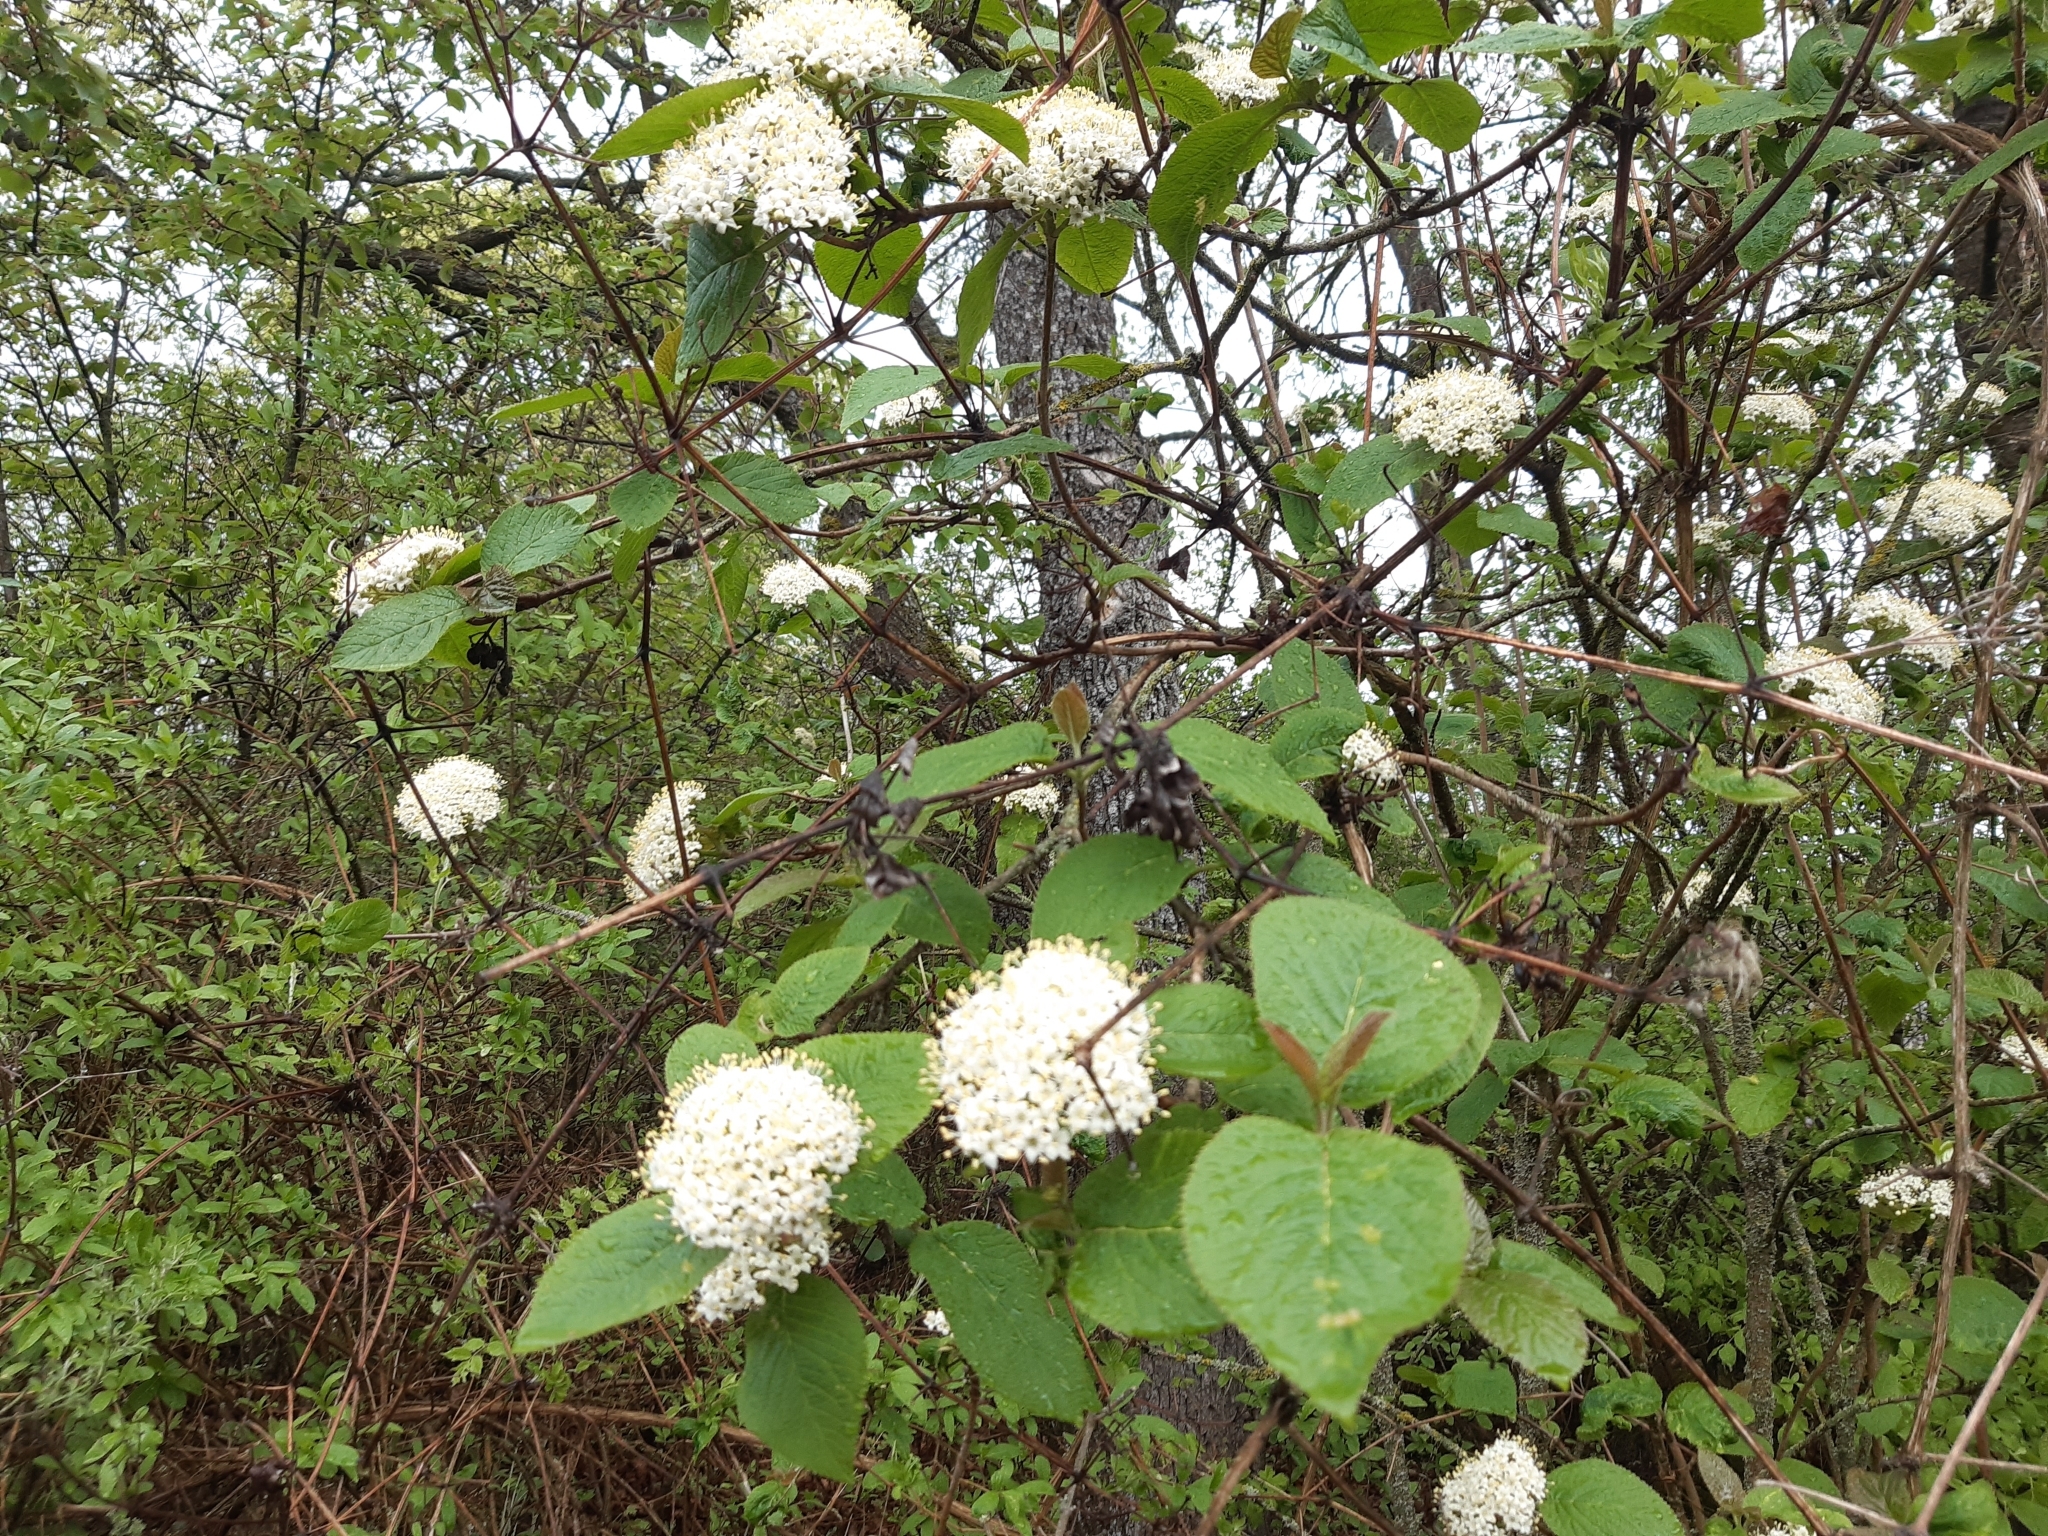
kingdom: Plantae
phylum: Tracheophyta
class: Magnoliopsida
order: Dipsacales
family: Viburnaceae
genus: Viburnum
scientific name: Viburnum lantana
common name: Wayfaring tree
